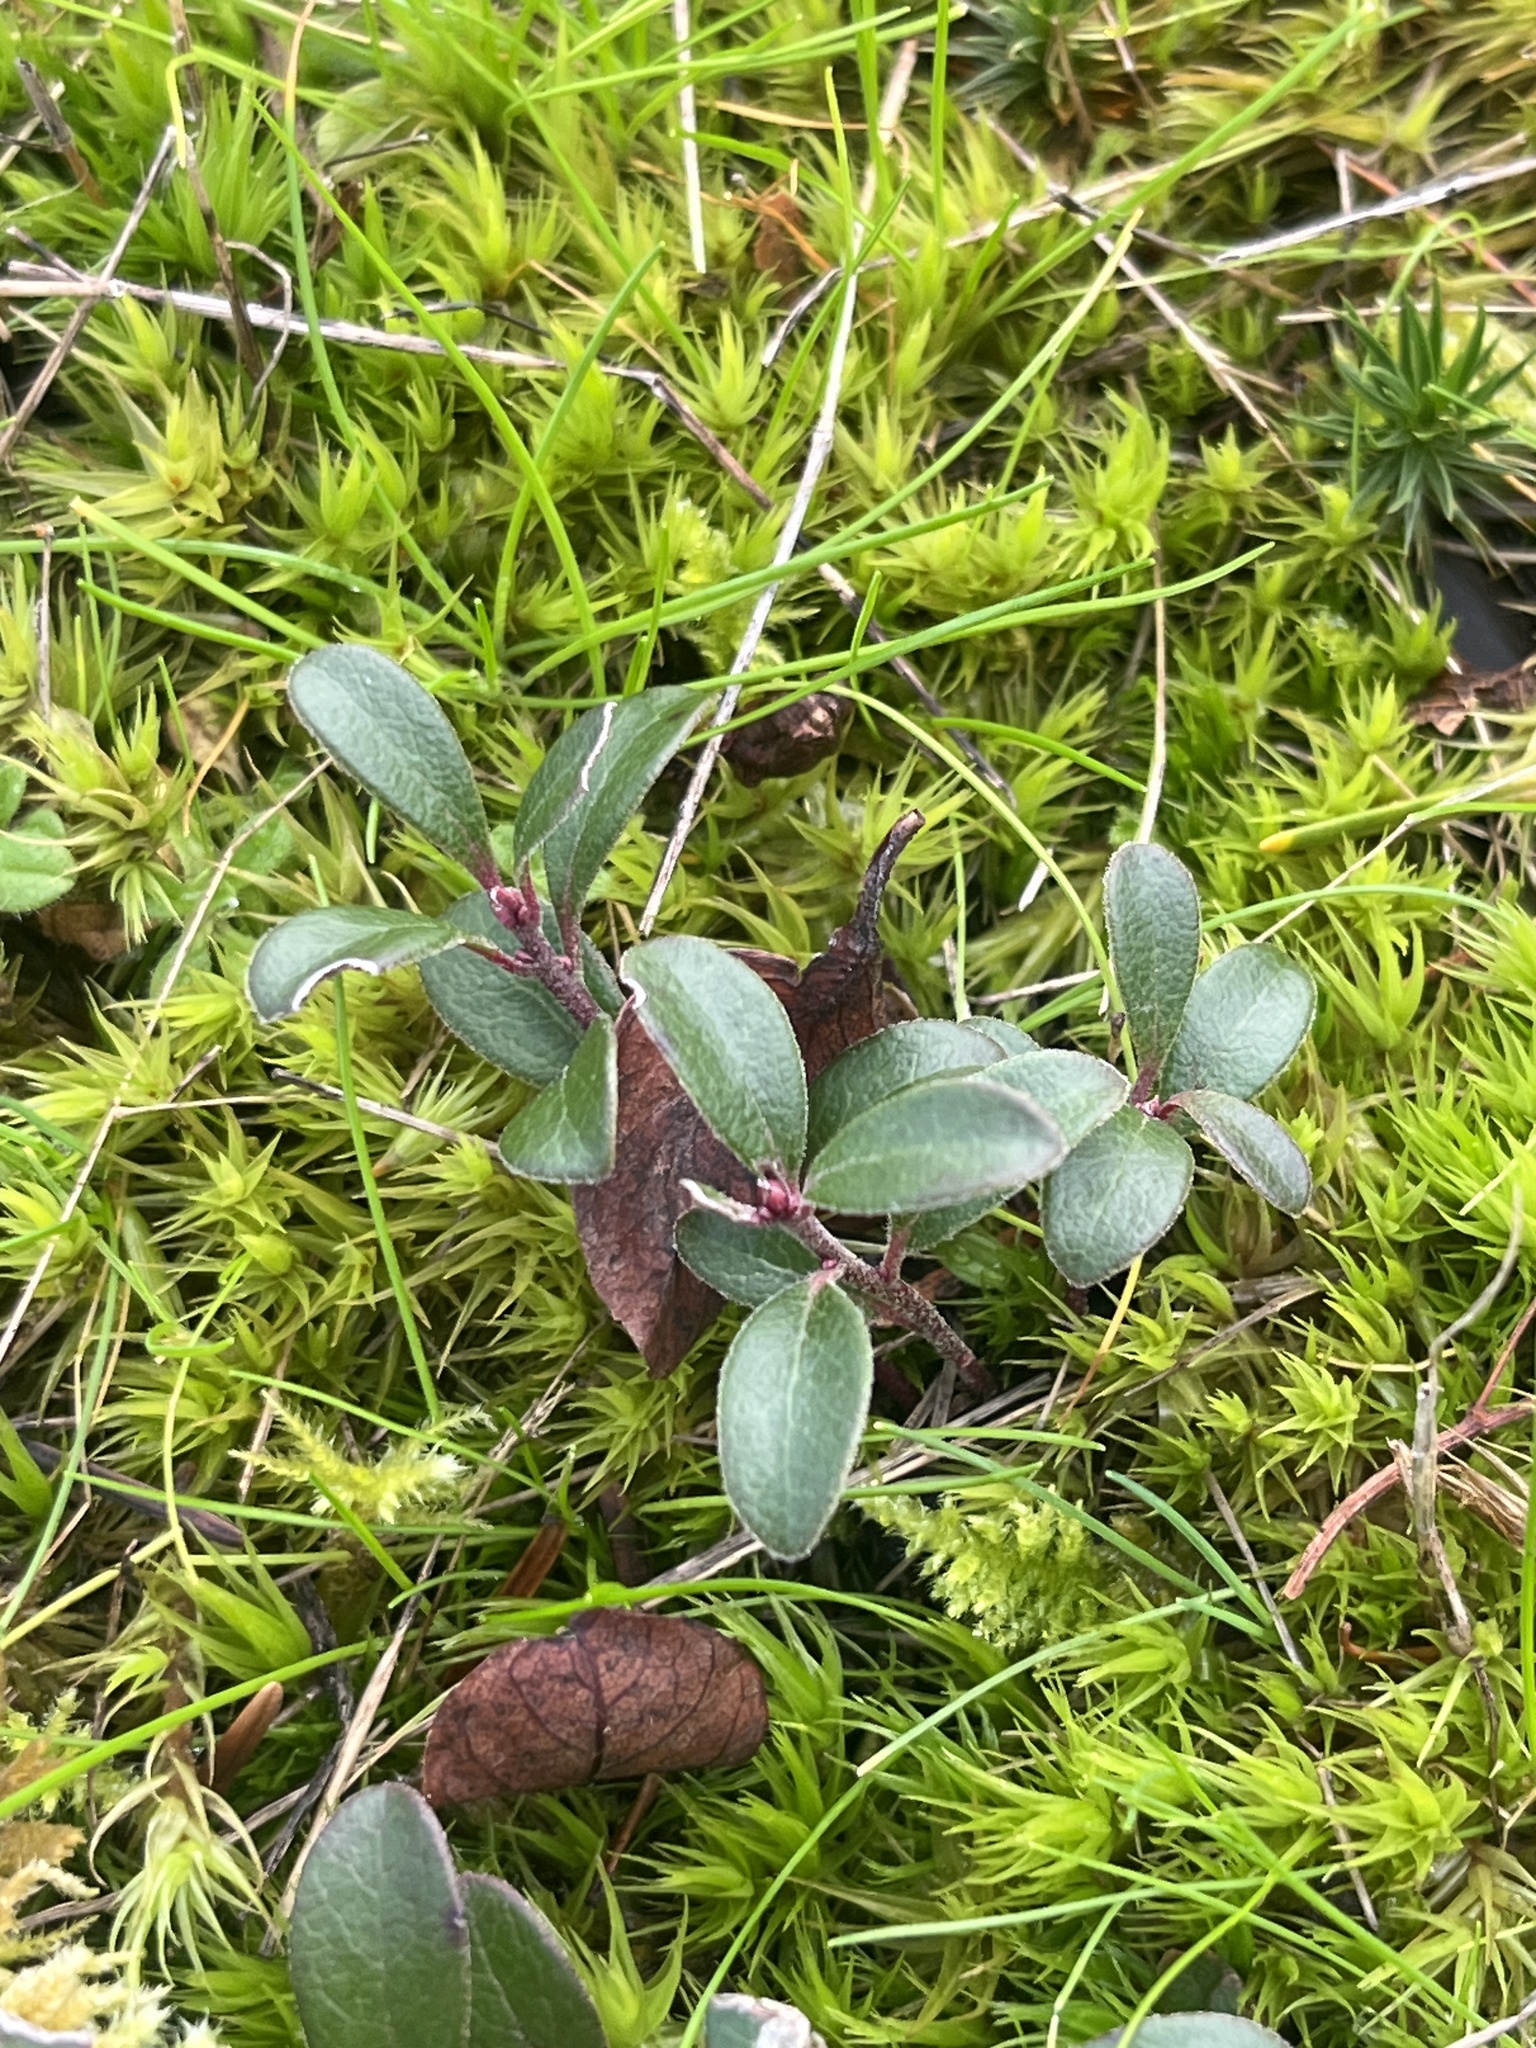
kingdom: Plantae
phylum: Tracheophyta
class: Magnoliopsida
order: Ericales
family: Ericaceae
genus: Arctostaphylos
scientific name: Arctostaphylos uva-ursi
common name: Bearberry
